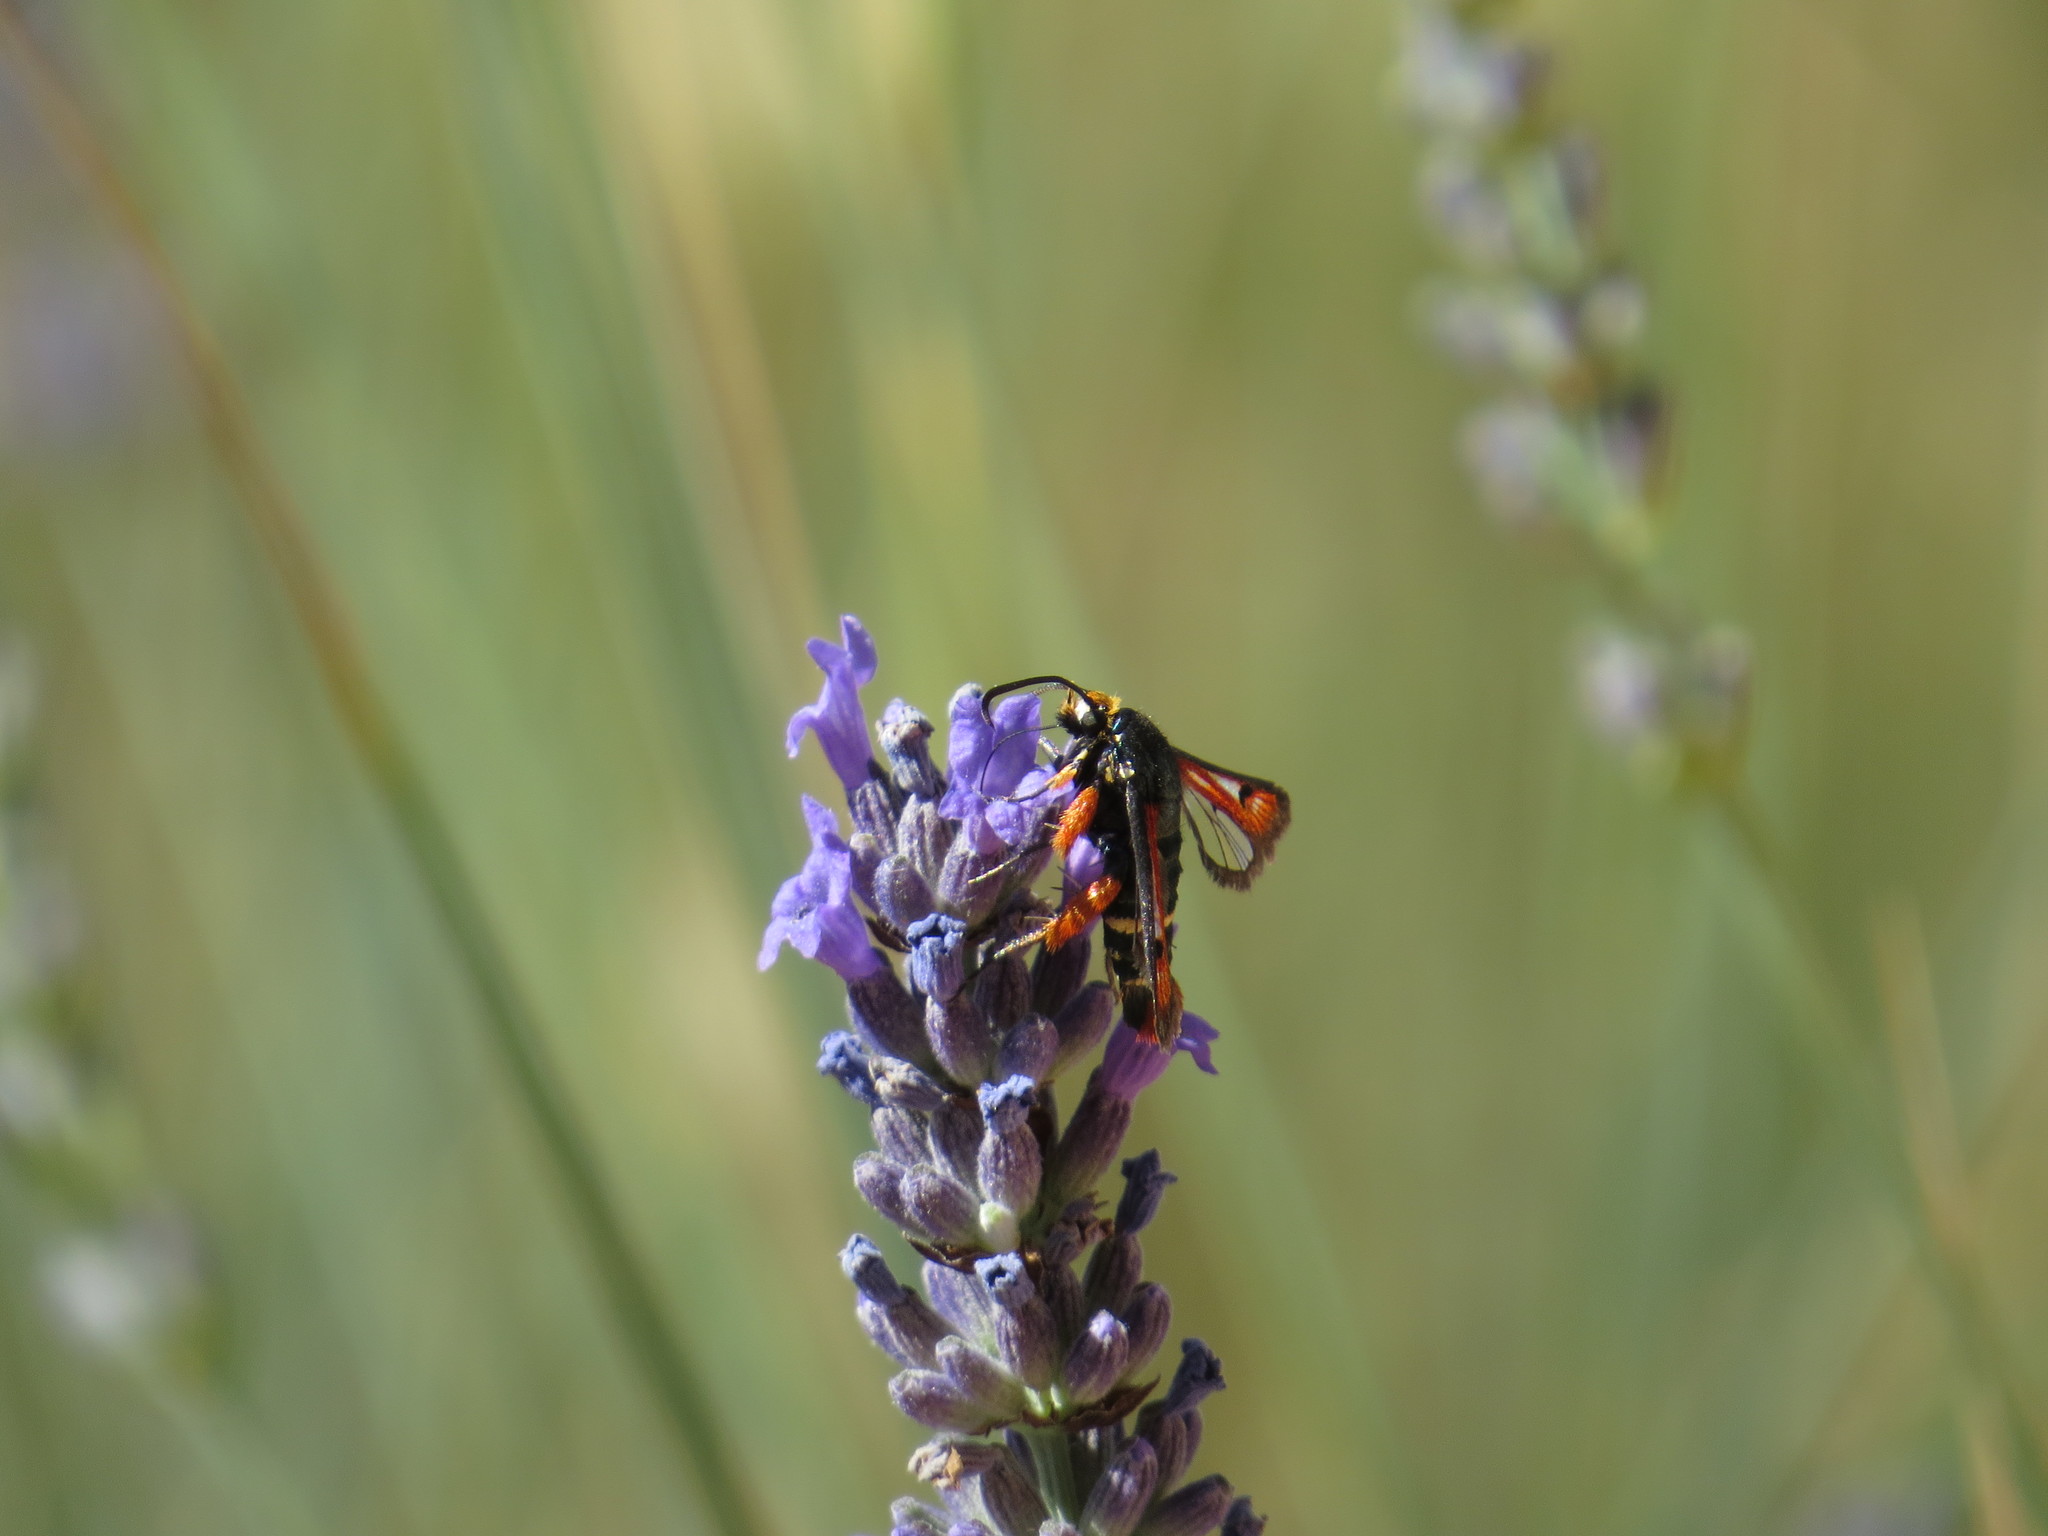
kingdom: Animalia
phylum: Arthropoda
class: Insecta
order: Lepidoptera
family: Sesiidae
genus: Pyropteron
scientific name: Pyropteron chrysidiforme
